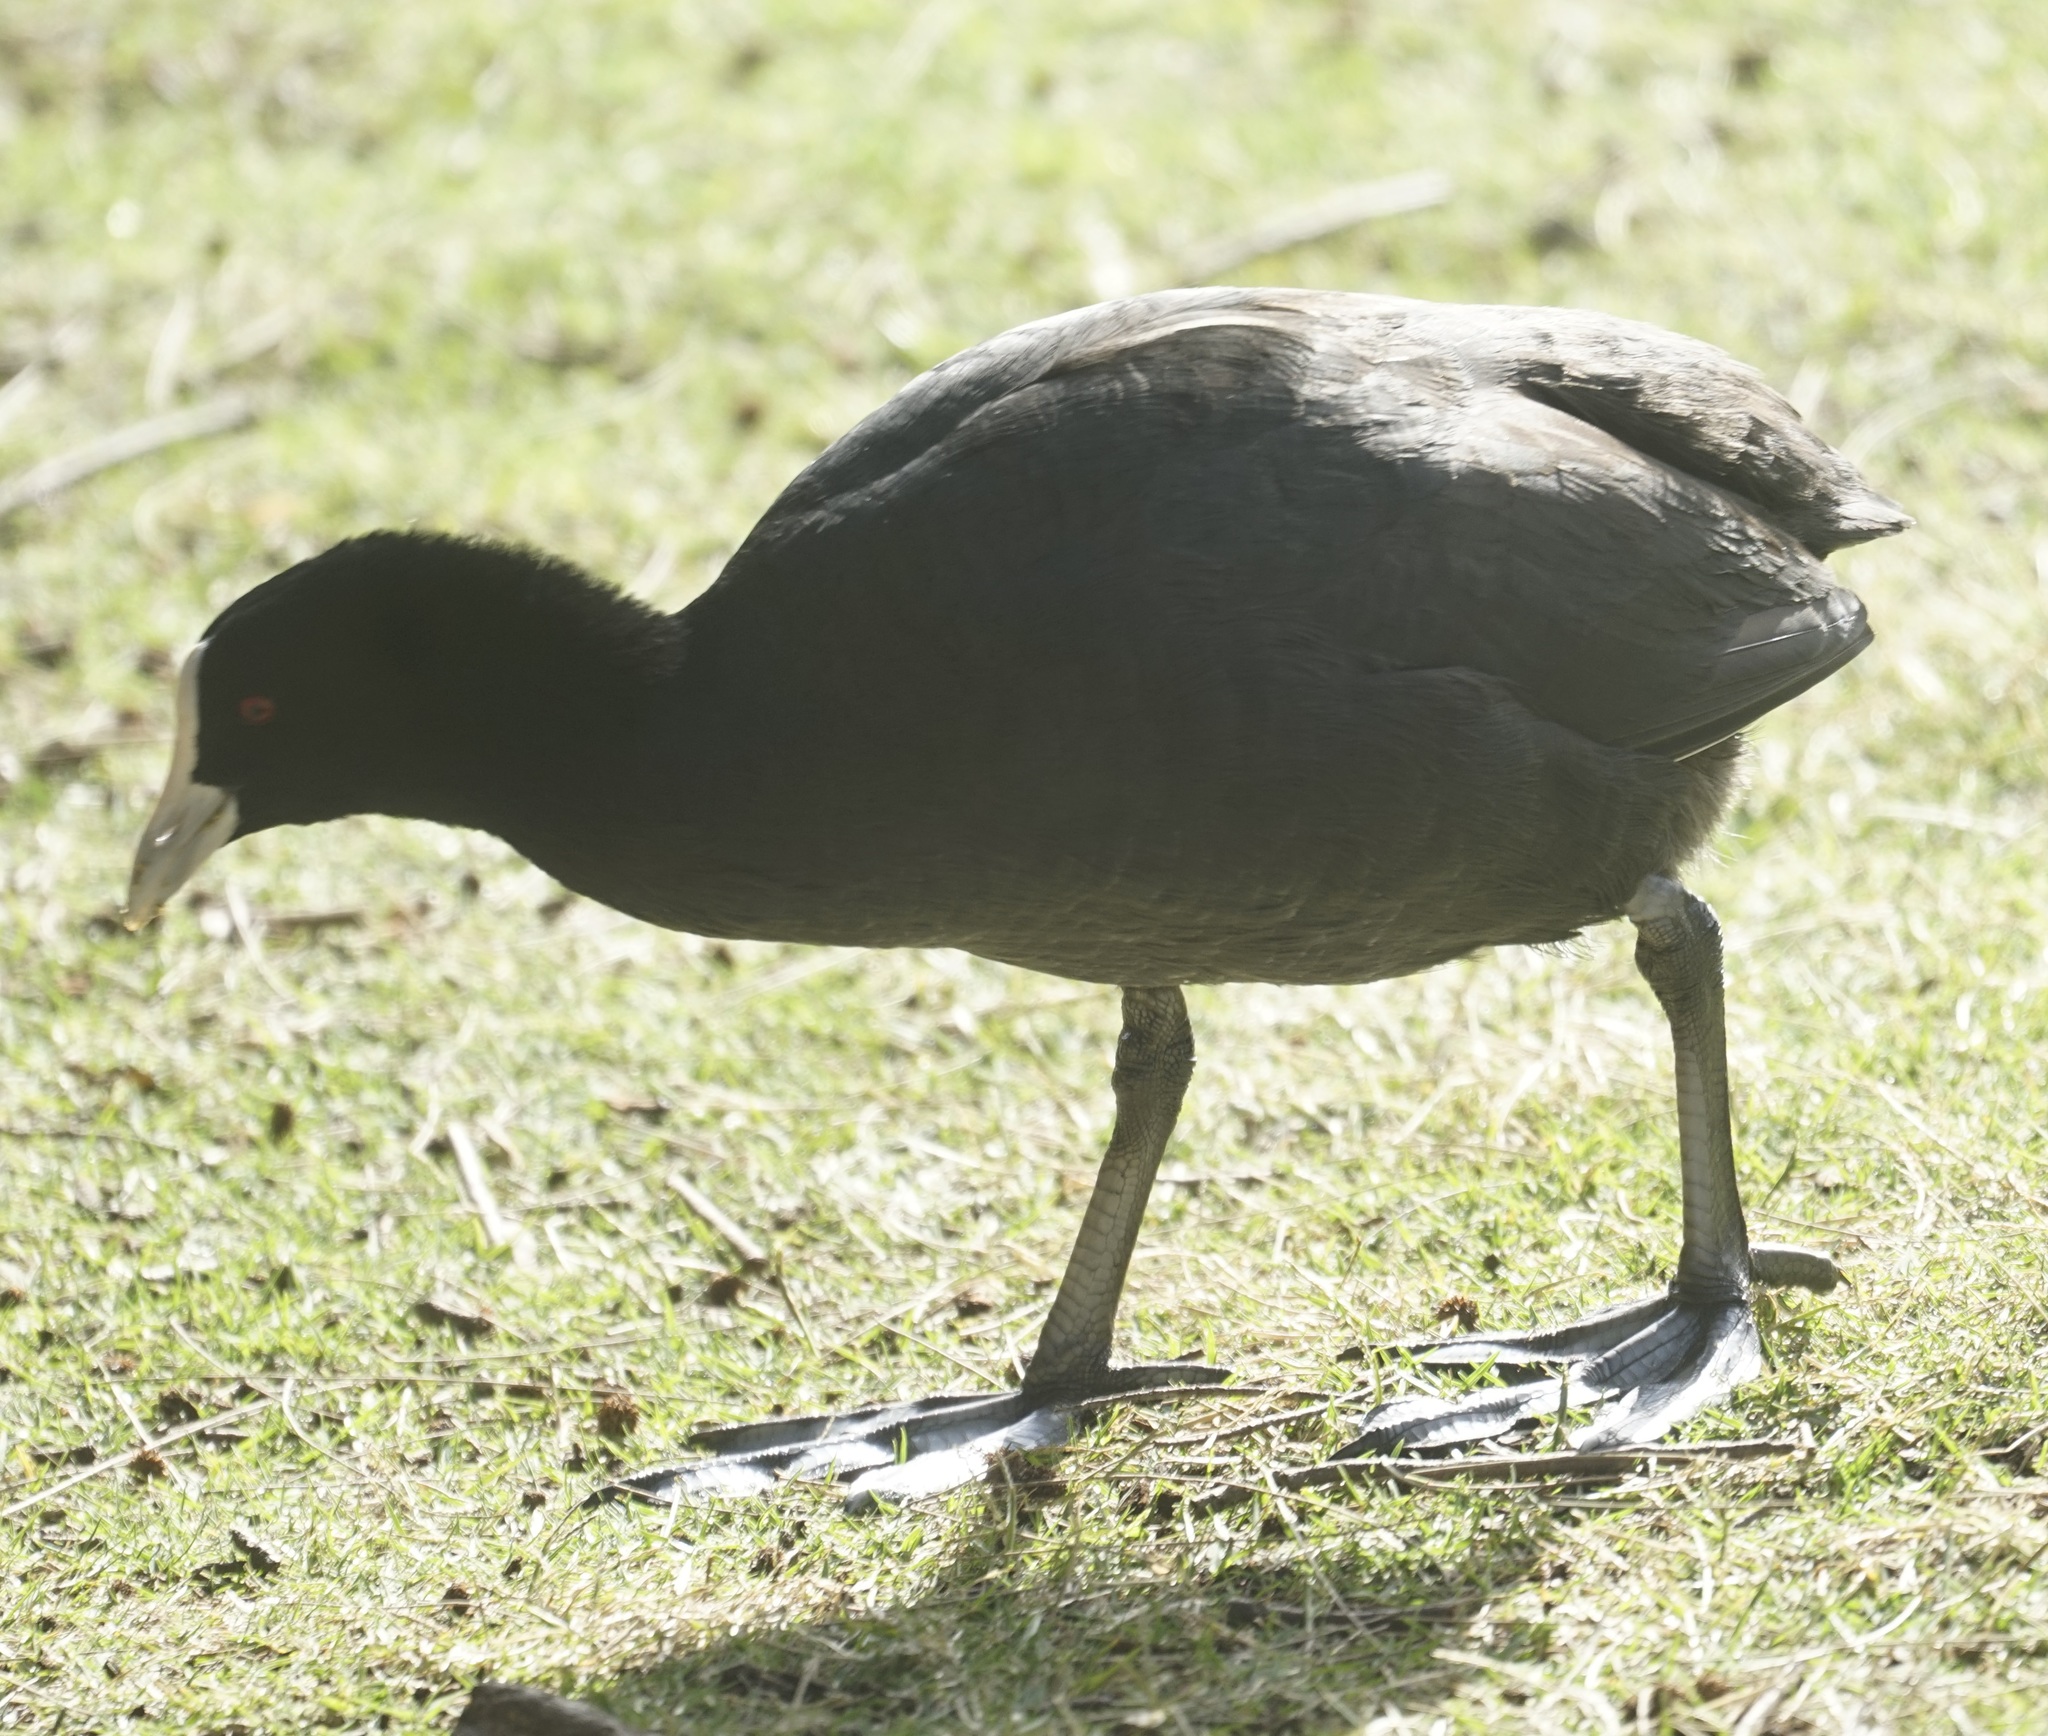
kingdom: Animalia
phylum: Chordata
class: Aves
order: Gruiformes
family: Rallidae
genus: Fulica
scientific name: Fulica atra
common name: Eurasian coot
